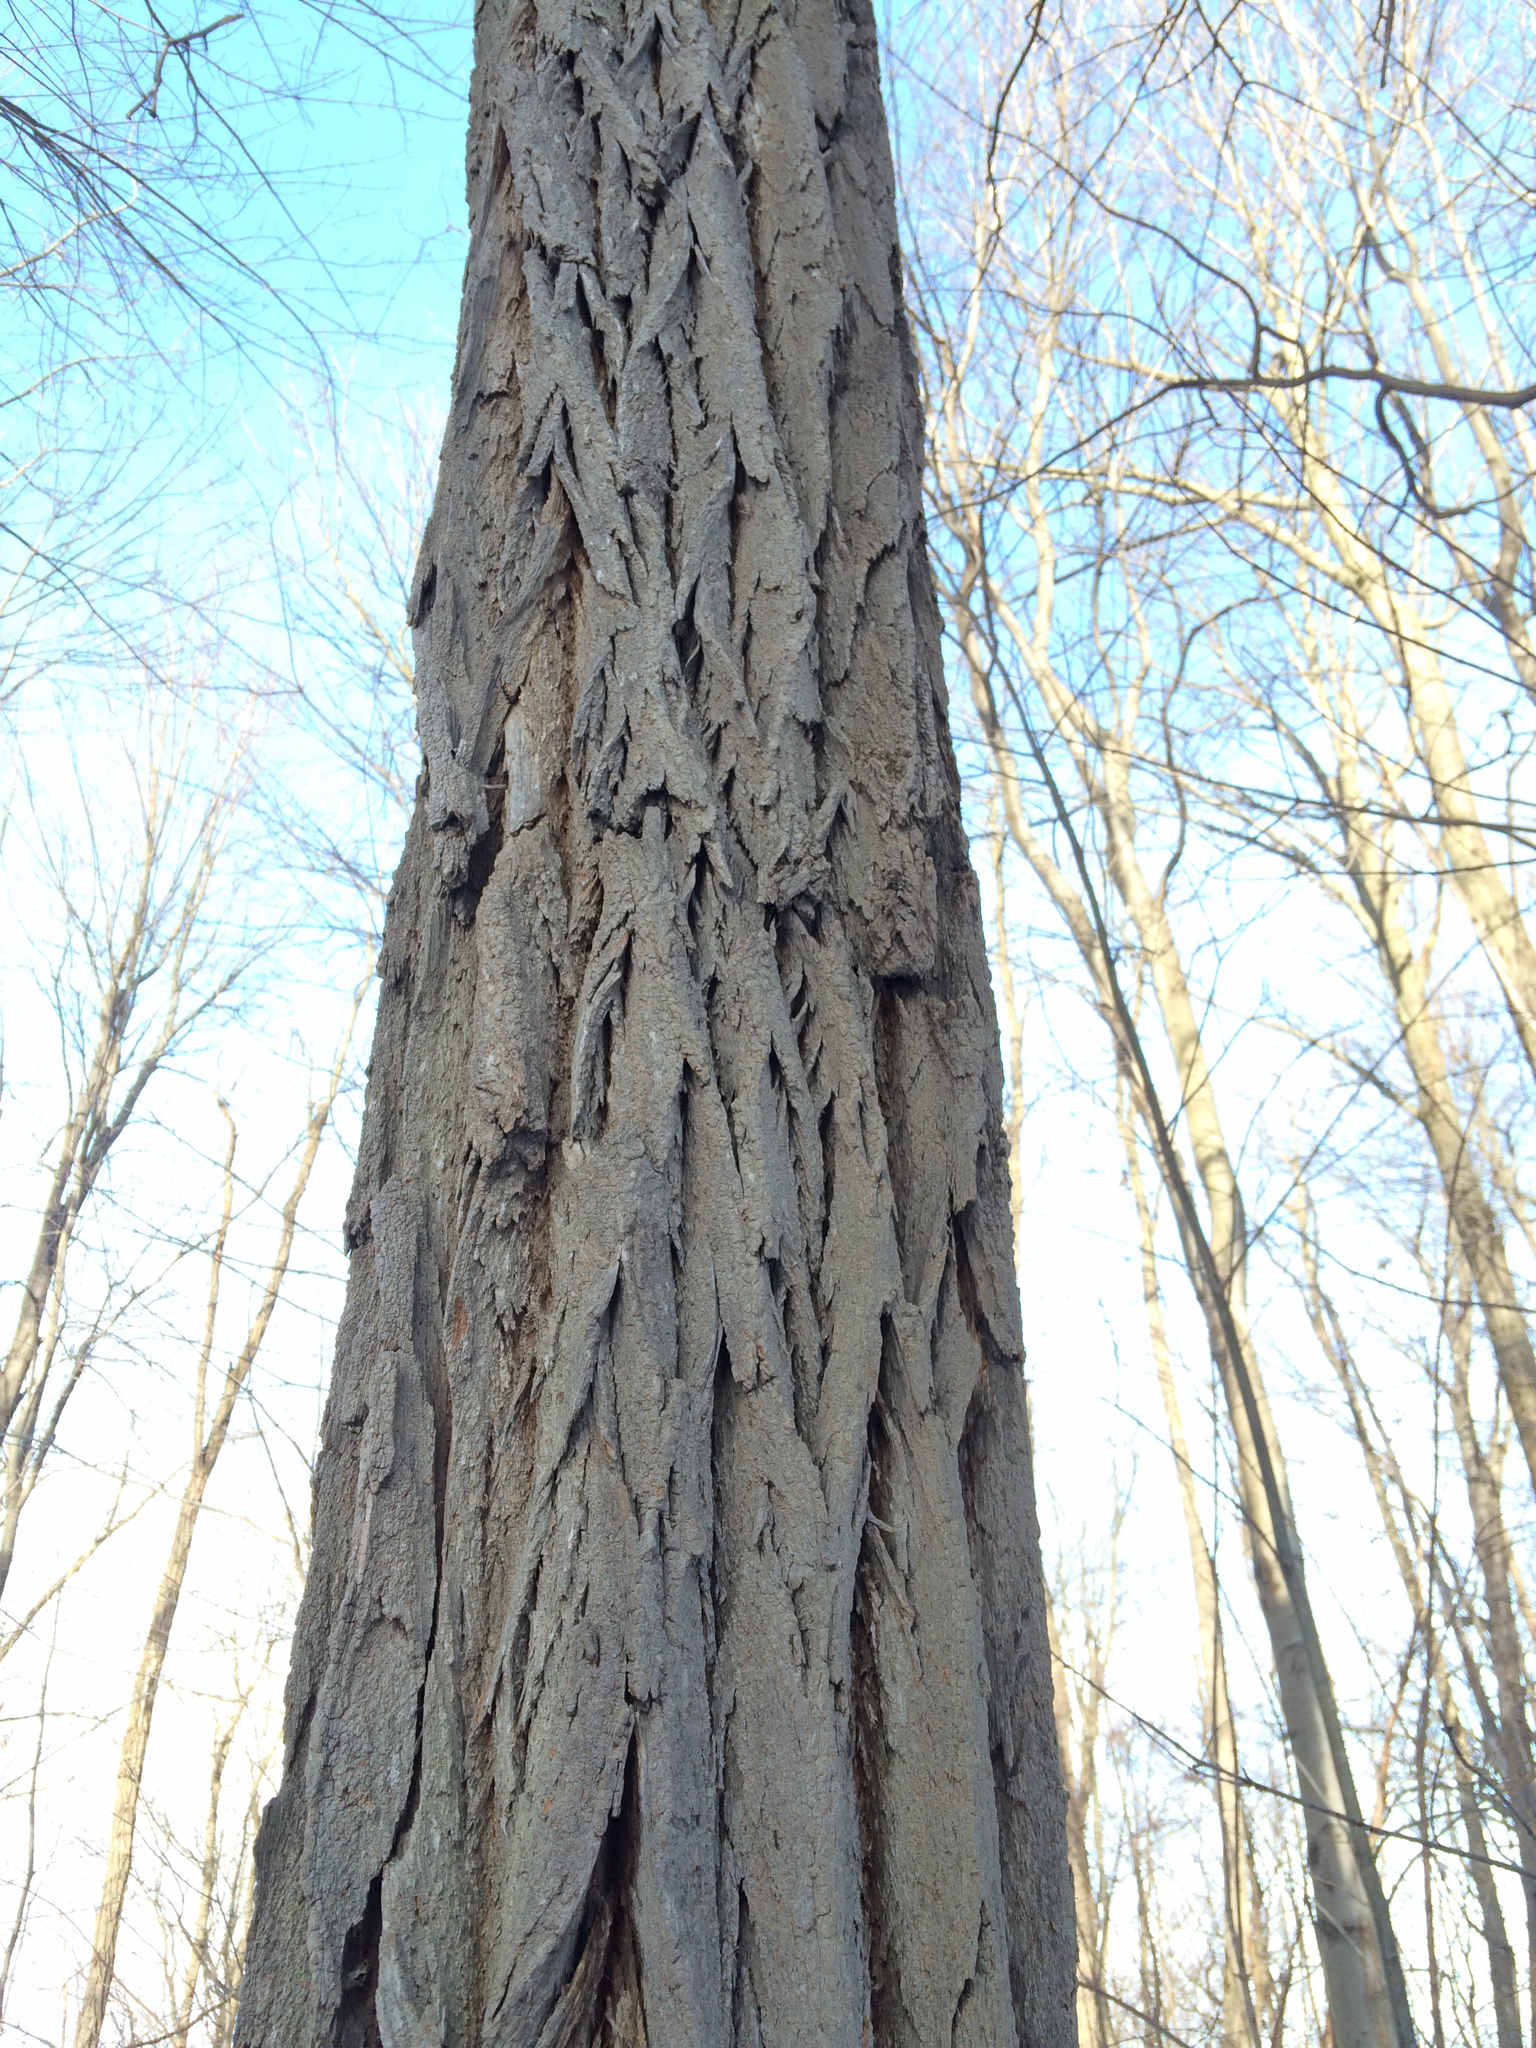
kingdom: Plantae
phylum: Tracheophyta
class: Magnoliopsida
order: Fabales
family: Fabaceae
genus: Robinia
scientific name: Robinia pseudoacacia
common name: Black locust
